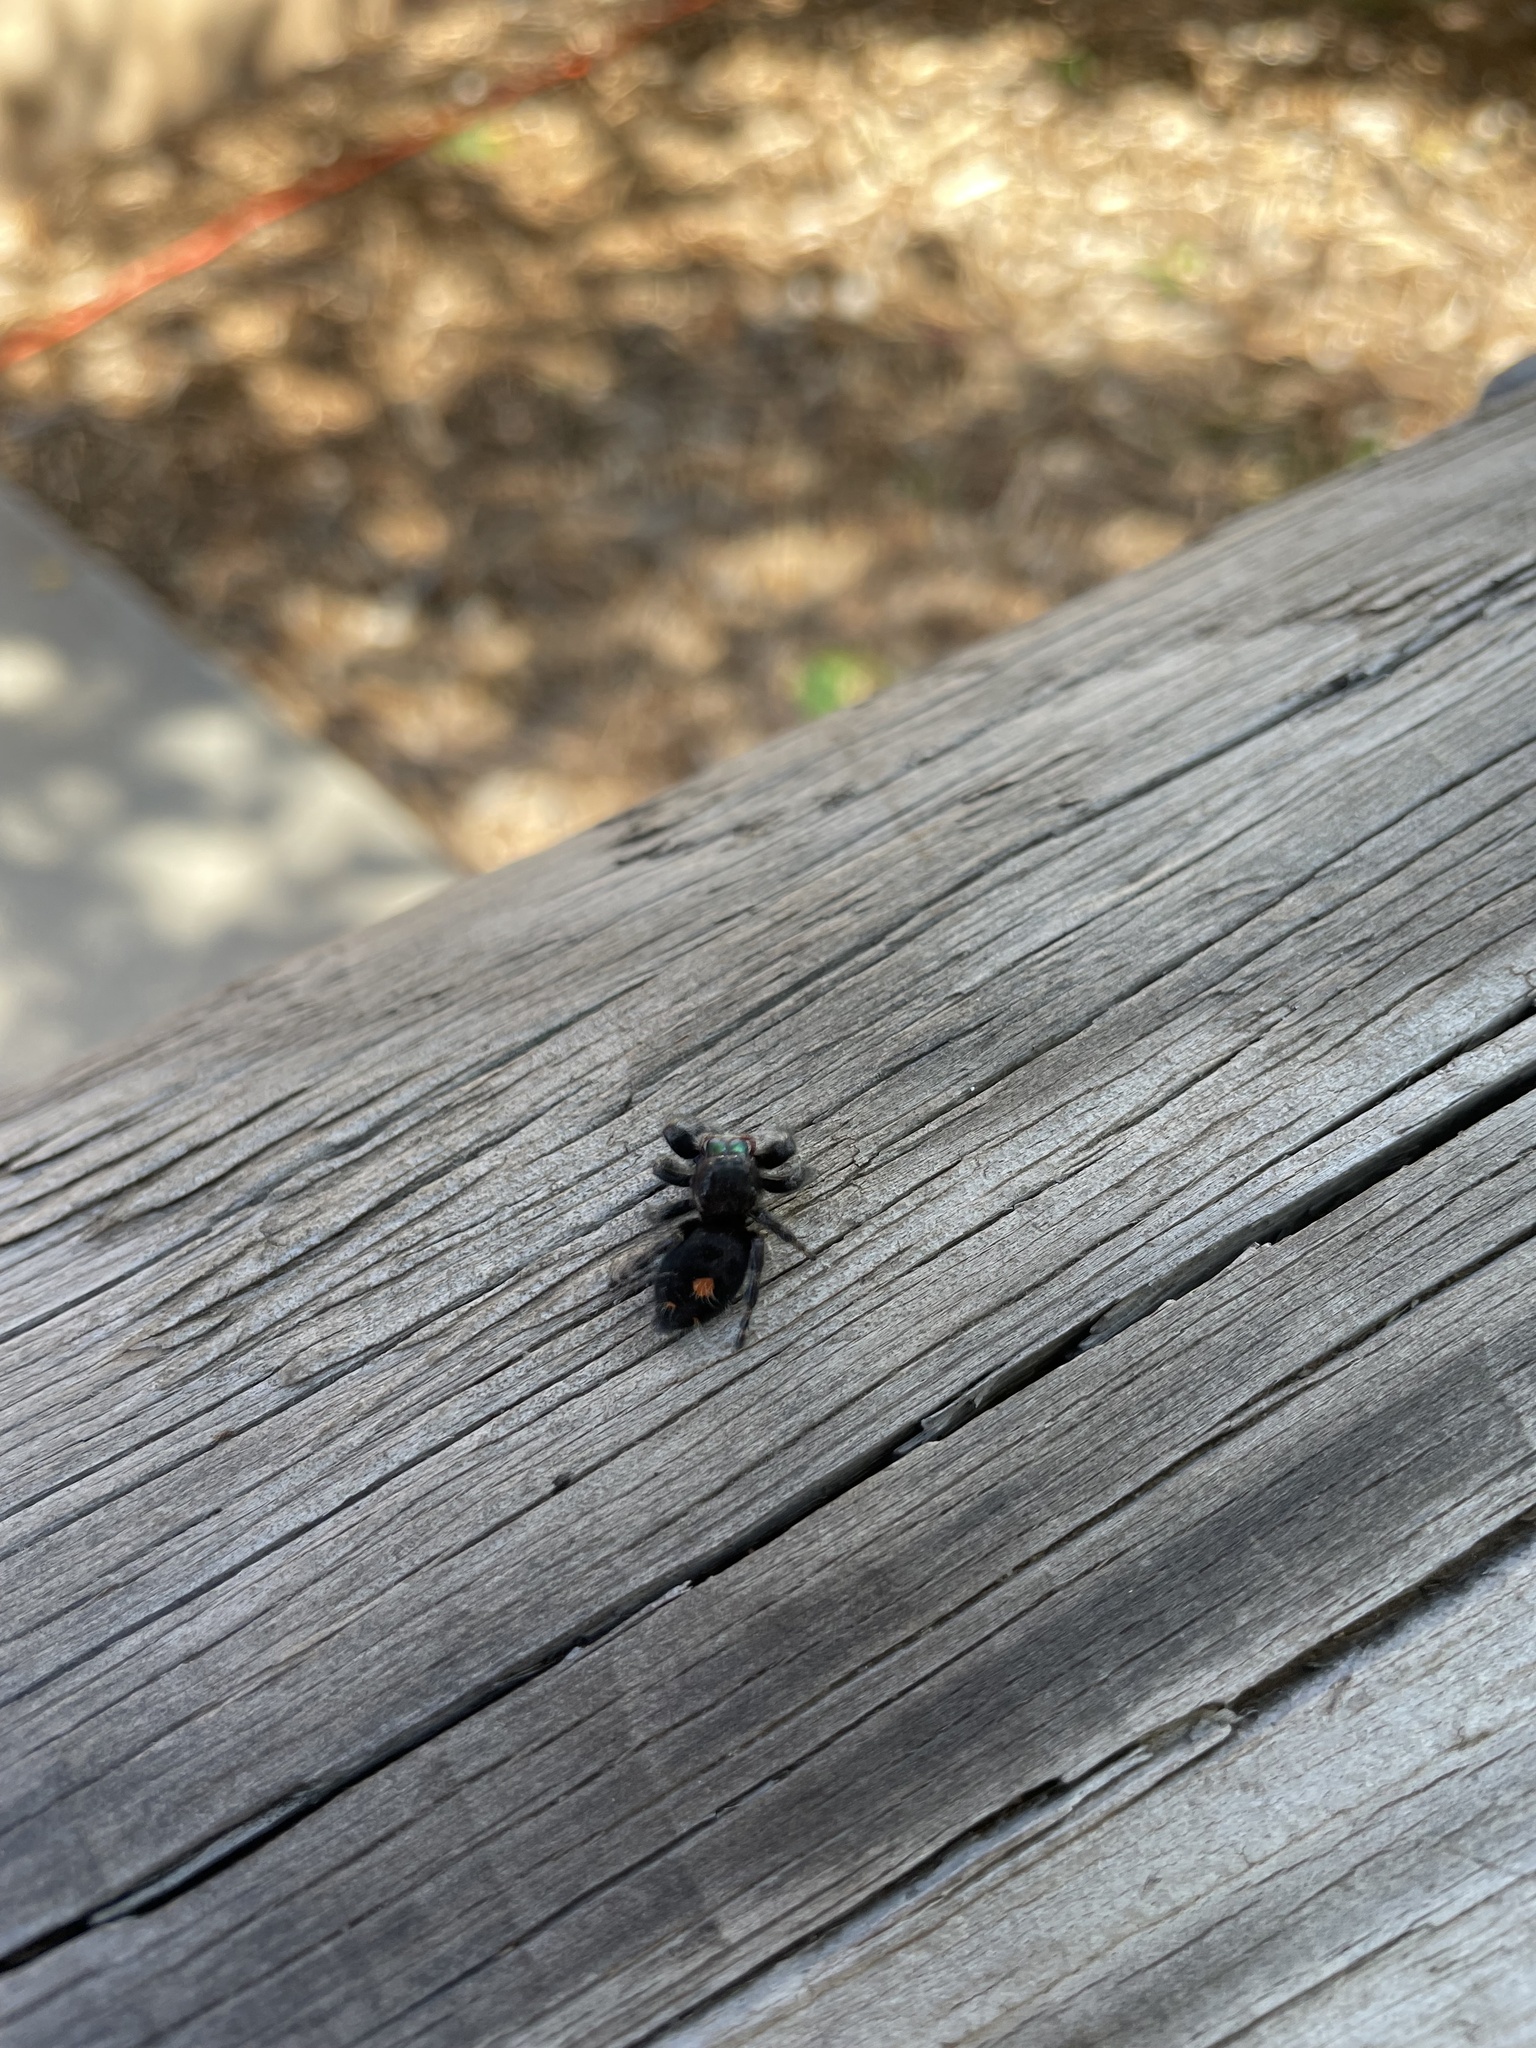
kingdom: Animalia
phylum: Arthropoda
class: Arachnida
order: Araneae
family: Salticidae
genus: Phidippus
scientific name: Phidippus audax
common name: Bold jumper
